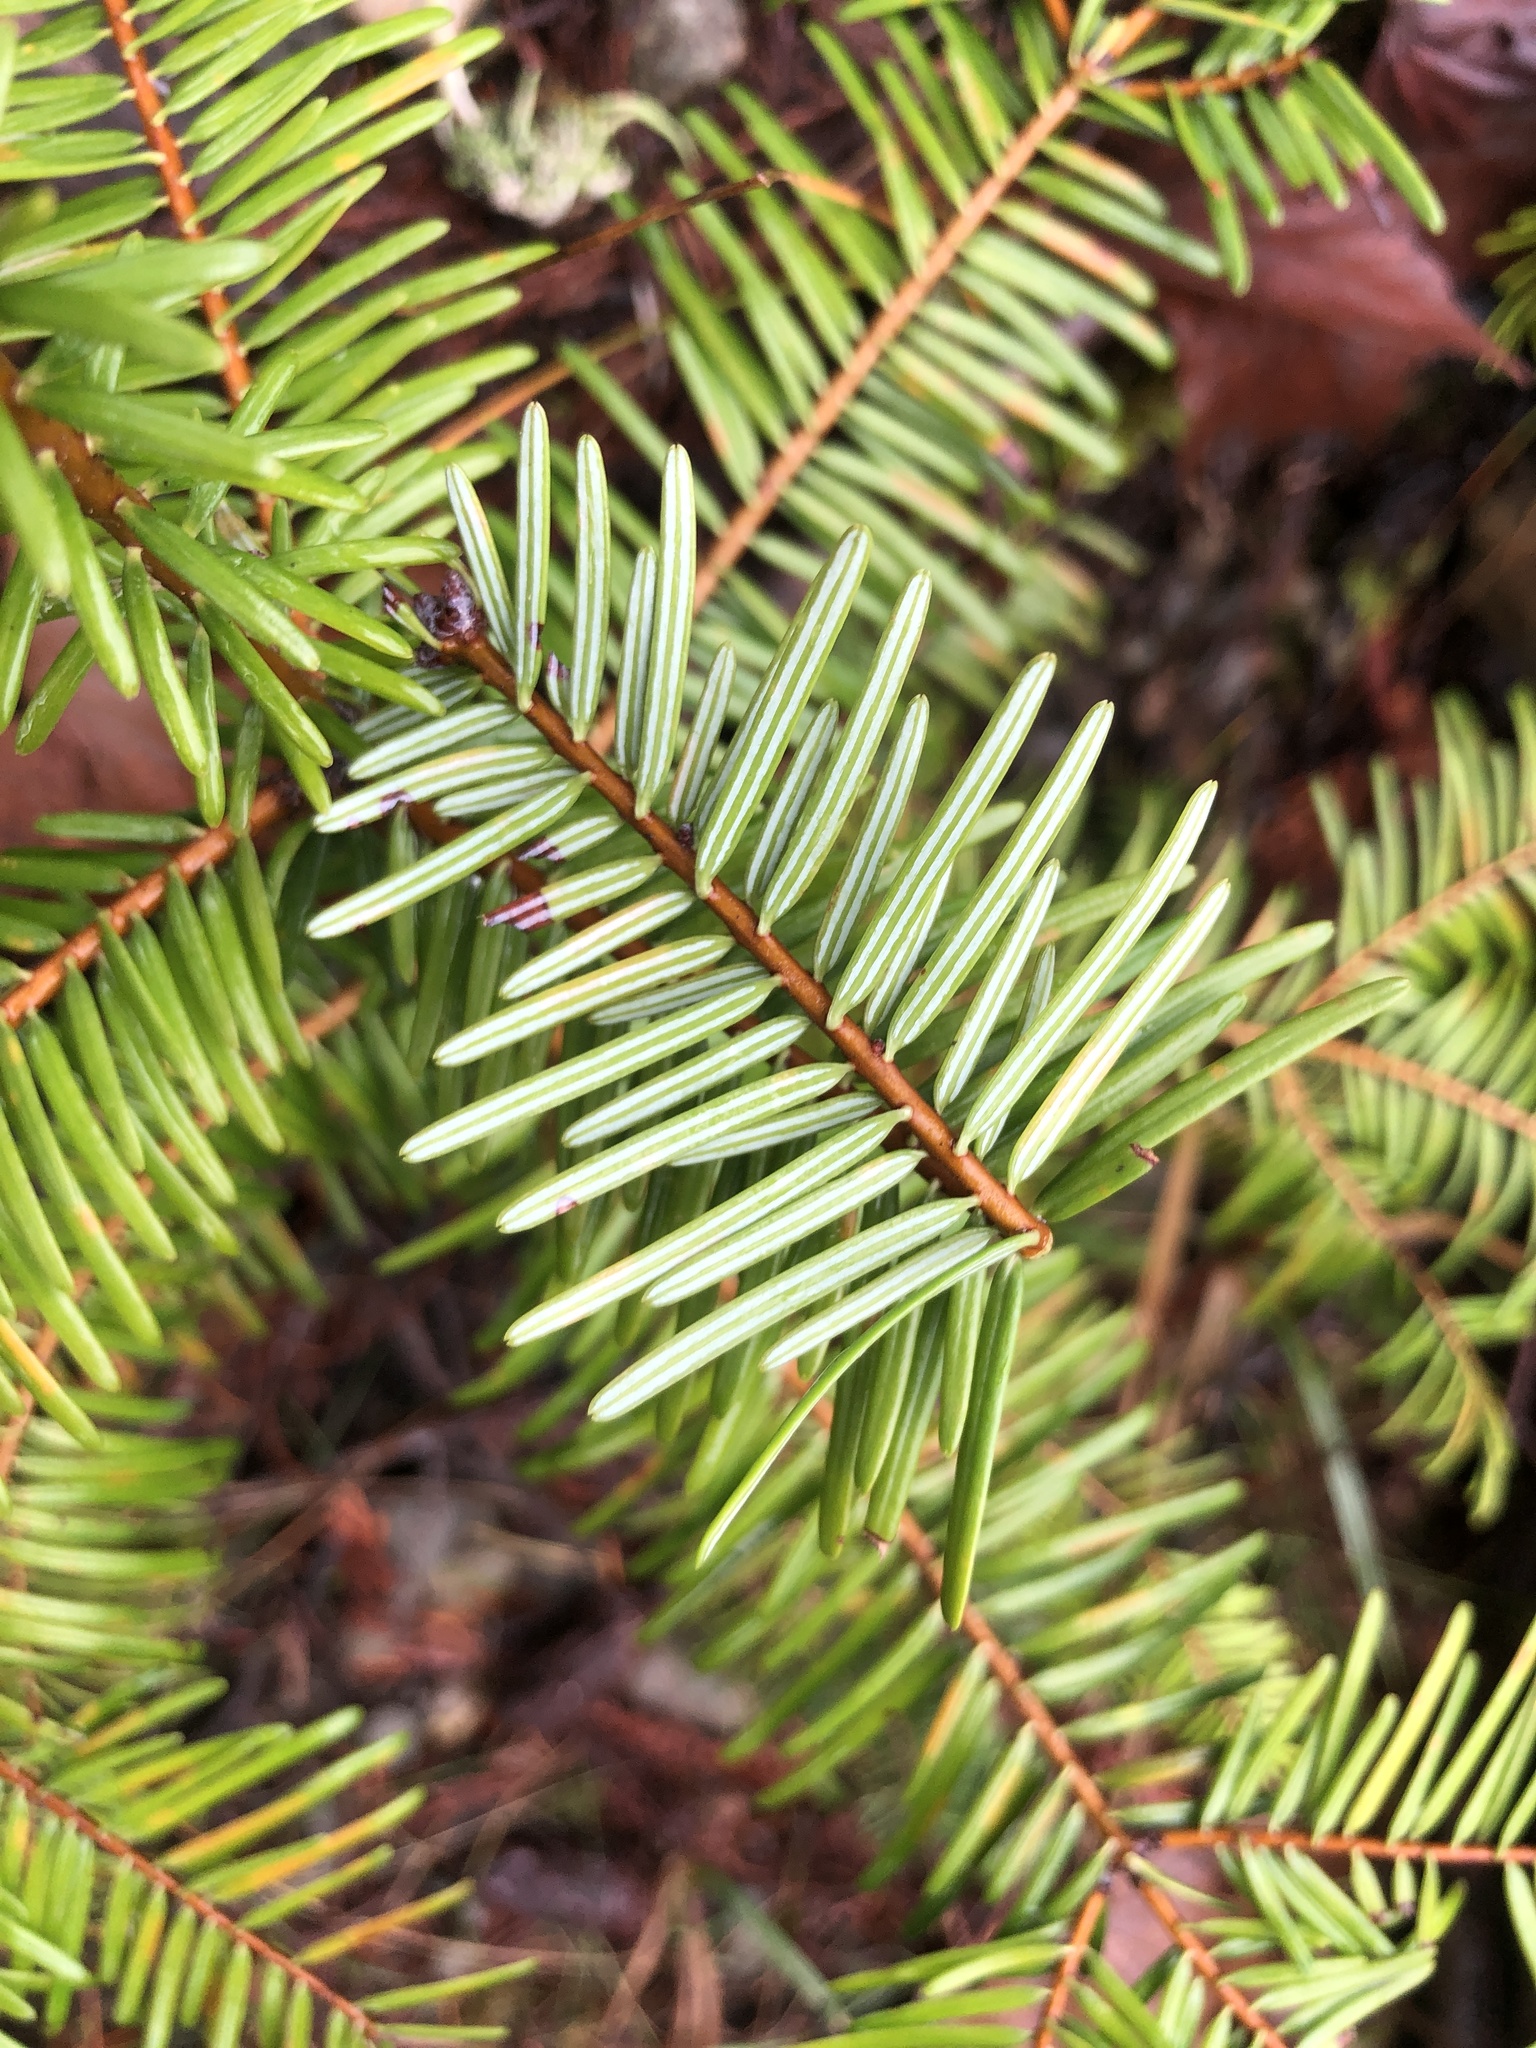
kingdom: Plantae
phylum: Tracheophyta
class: Pinopsida
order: Pinales
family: Pinaceae
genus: Abies
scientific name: Abies grandis
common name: Giant fir
